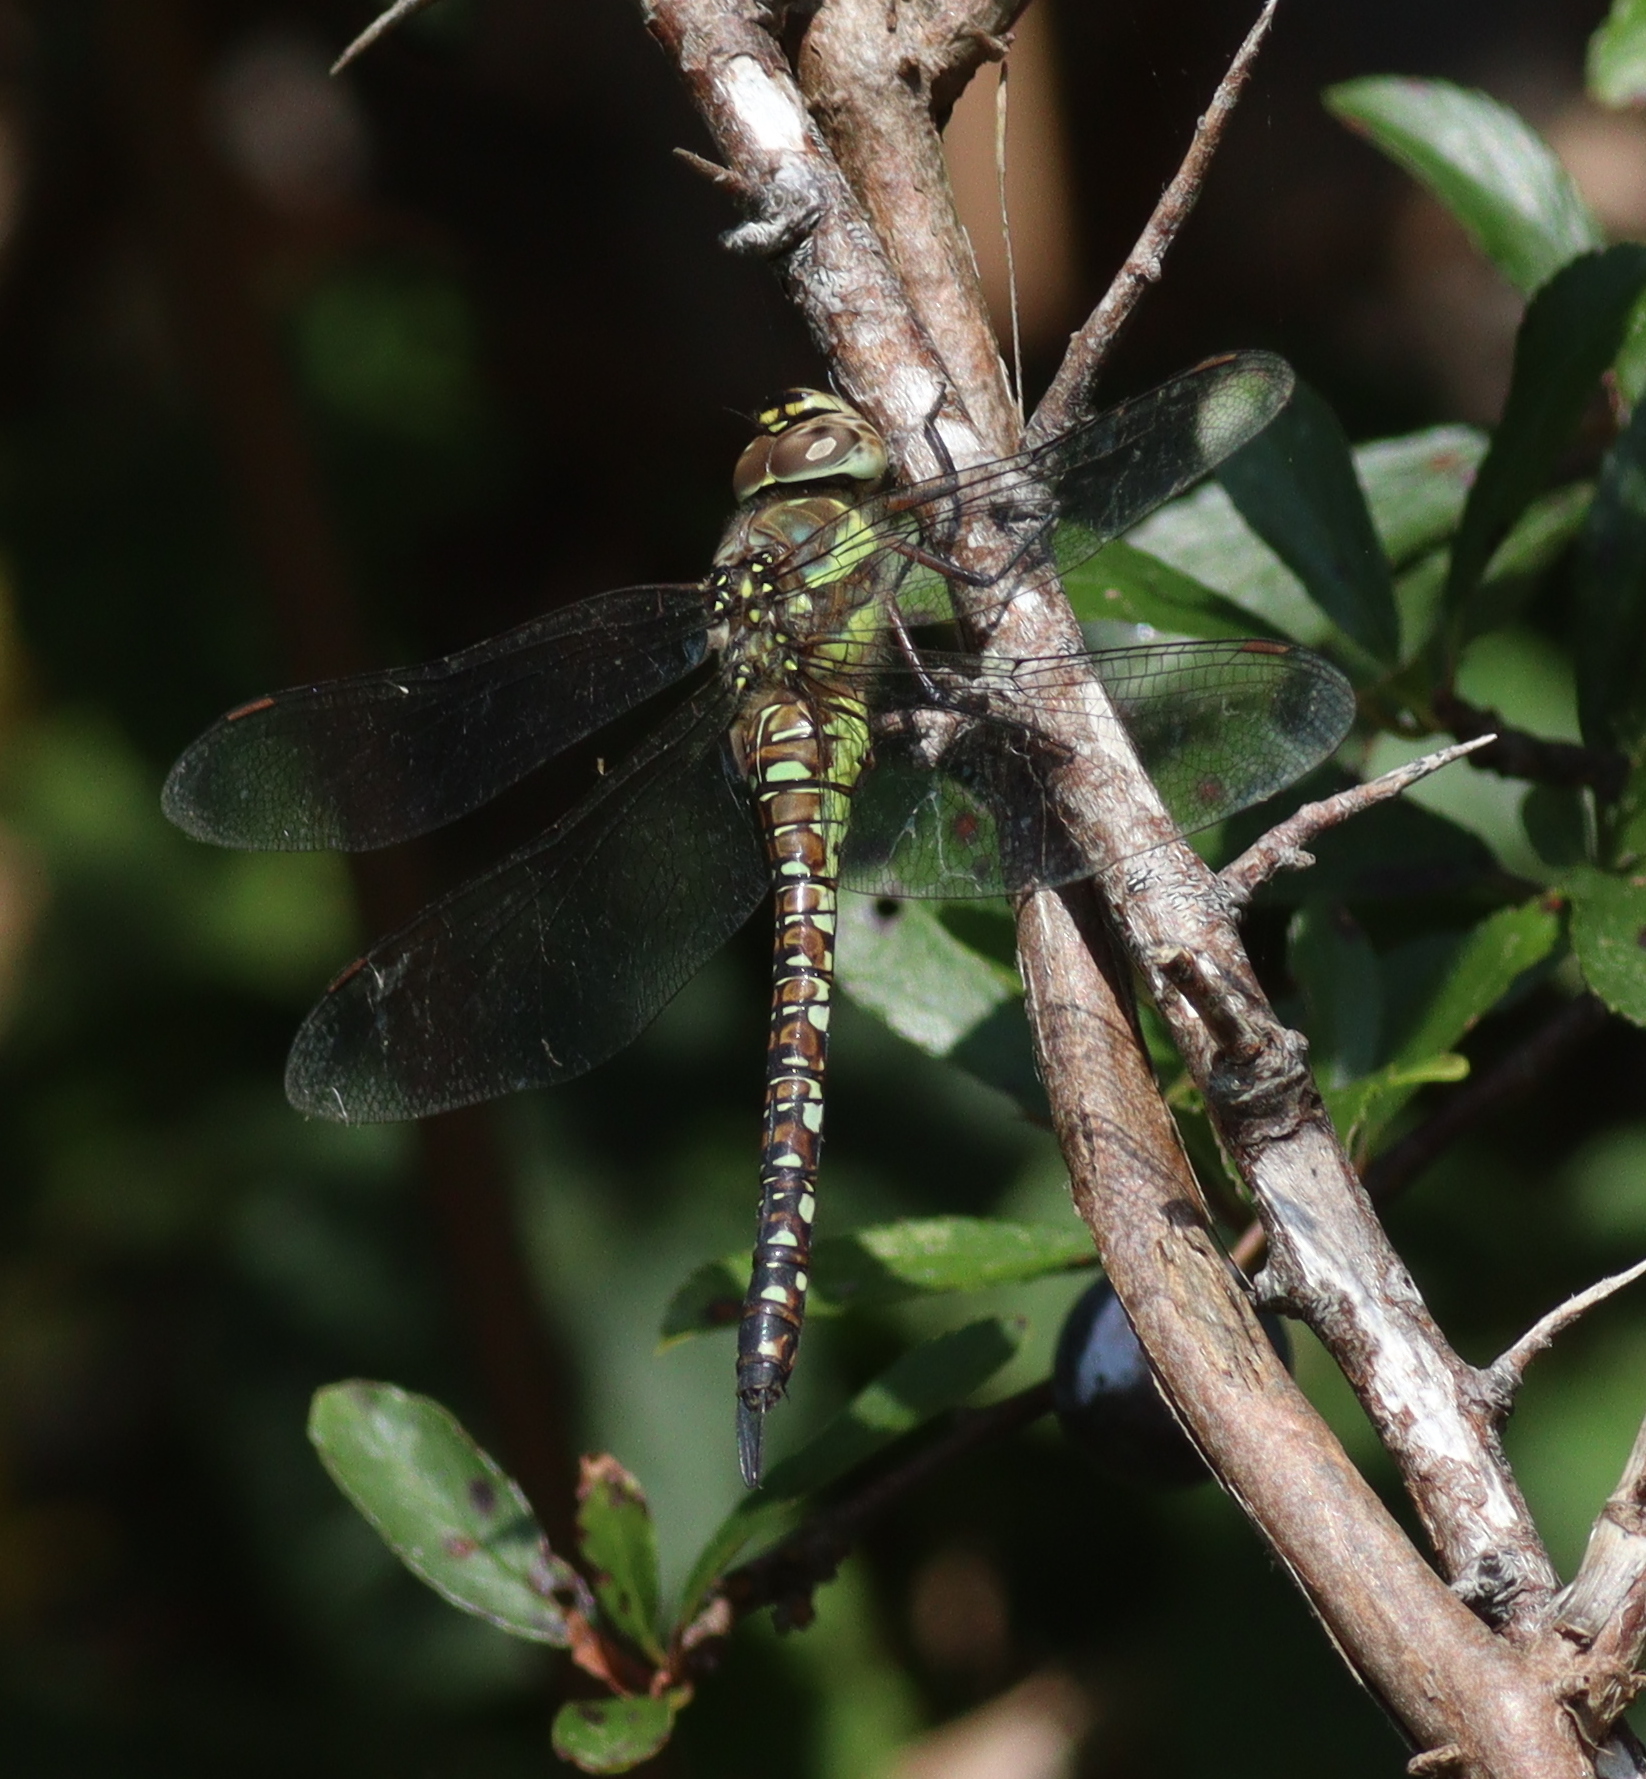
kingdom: Animalia
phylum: Arthropoda
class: Insecta
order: Odonata
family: Aeshnidae
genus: Aeshna
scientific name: Aeshna mixta
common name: Migrant hawker
